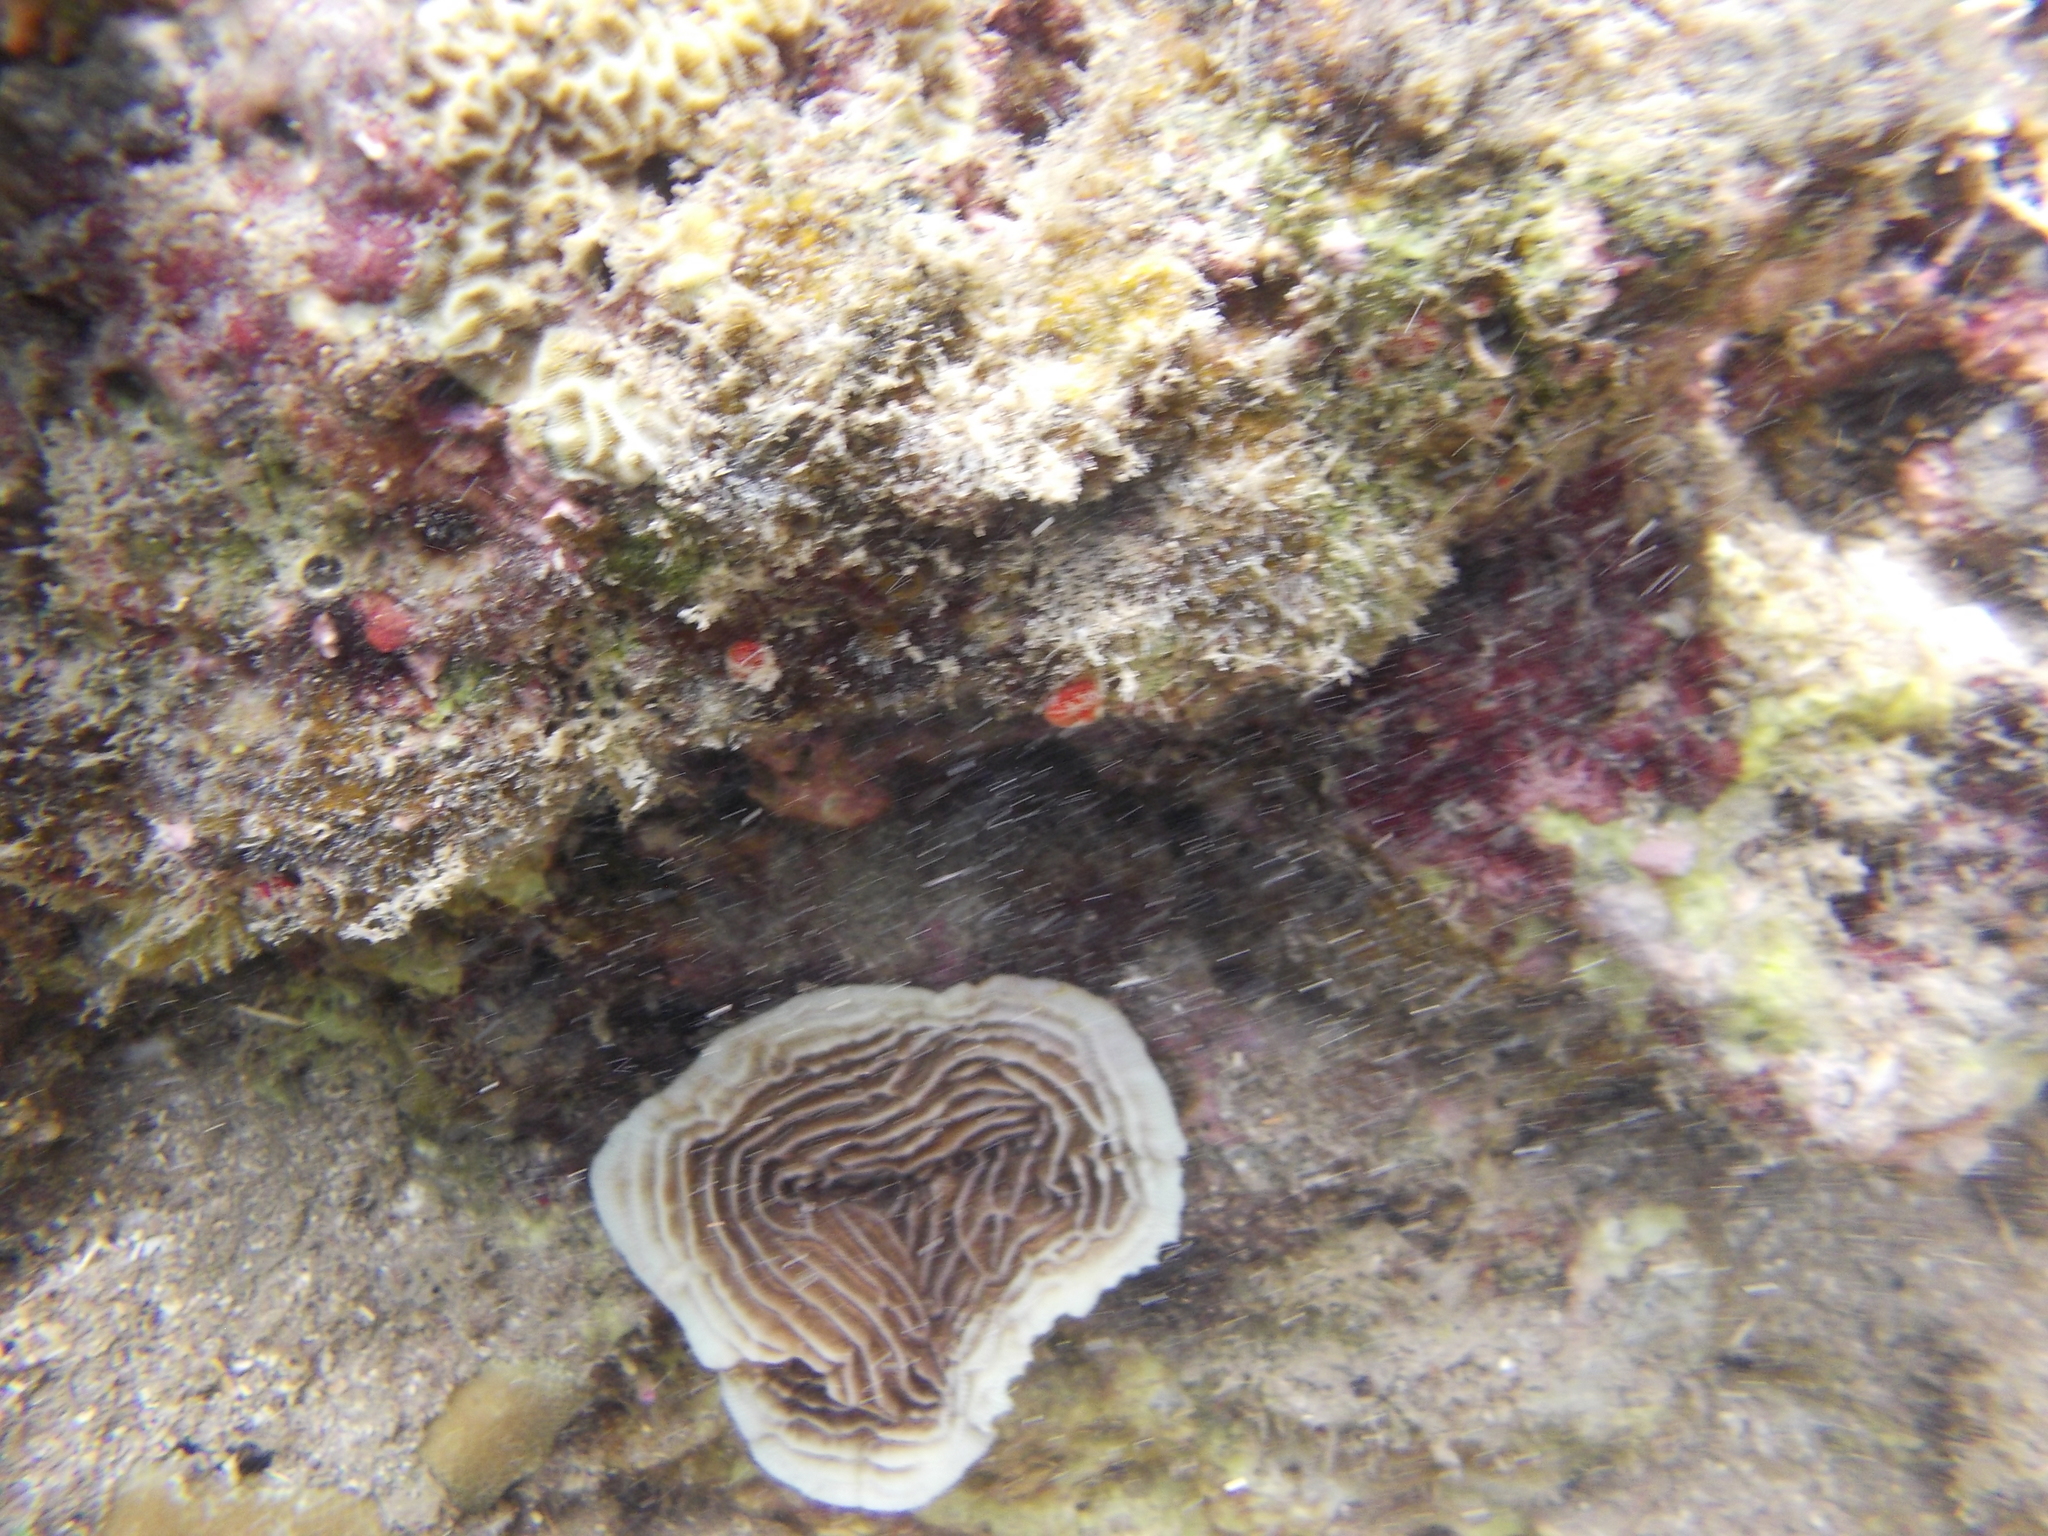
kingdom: Animalia
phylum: Cnidaria
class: Anthozoa
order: Scleractinia
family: Pachyseridae
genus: Pachyseris
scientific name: Pachyseris speciosa
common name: Serpent coral
